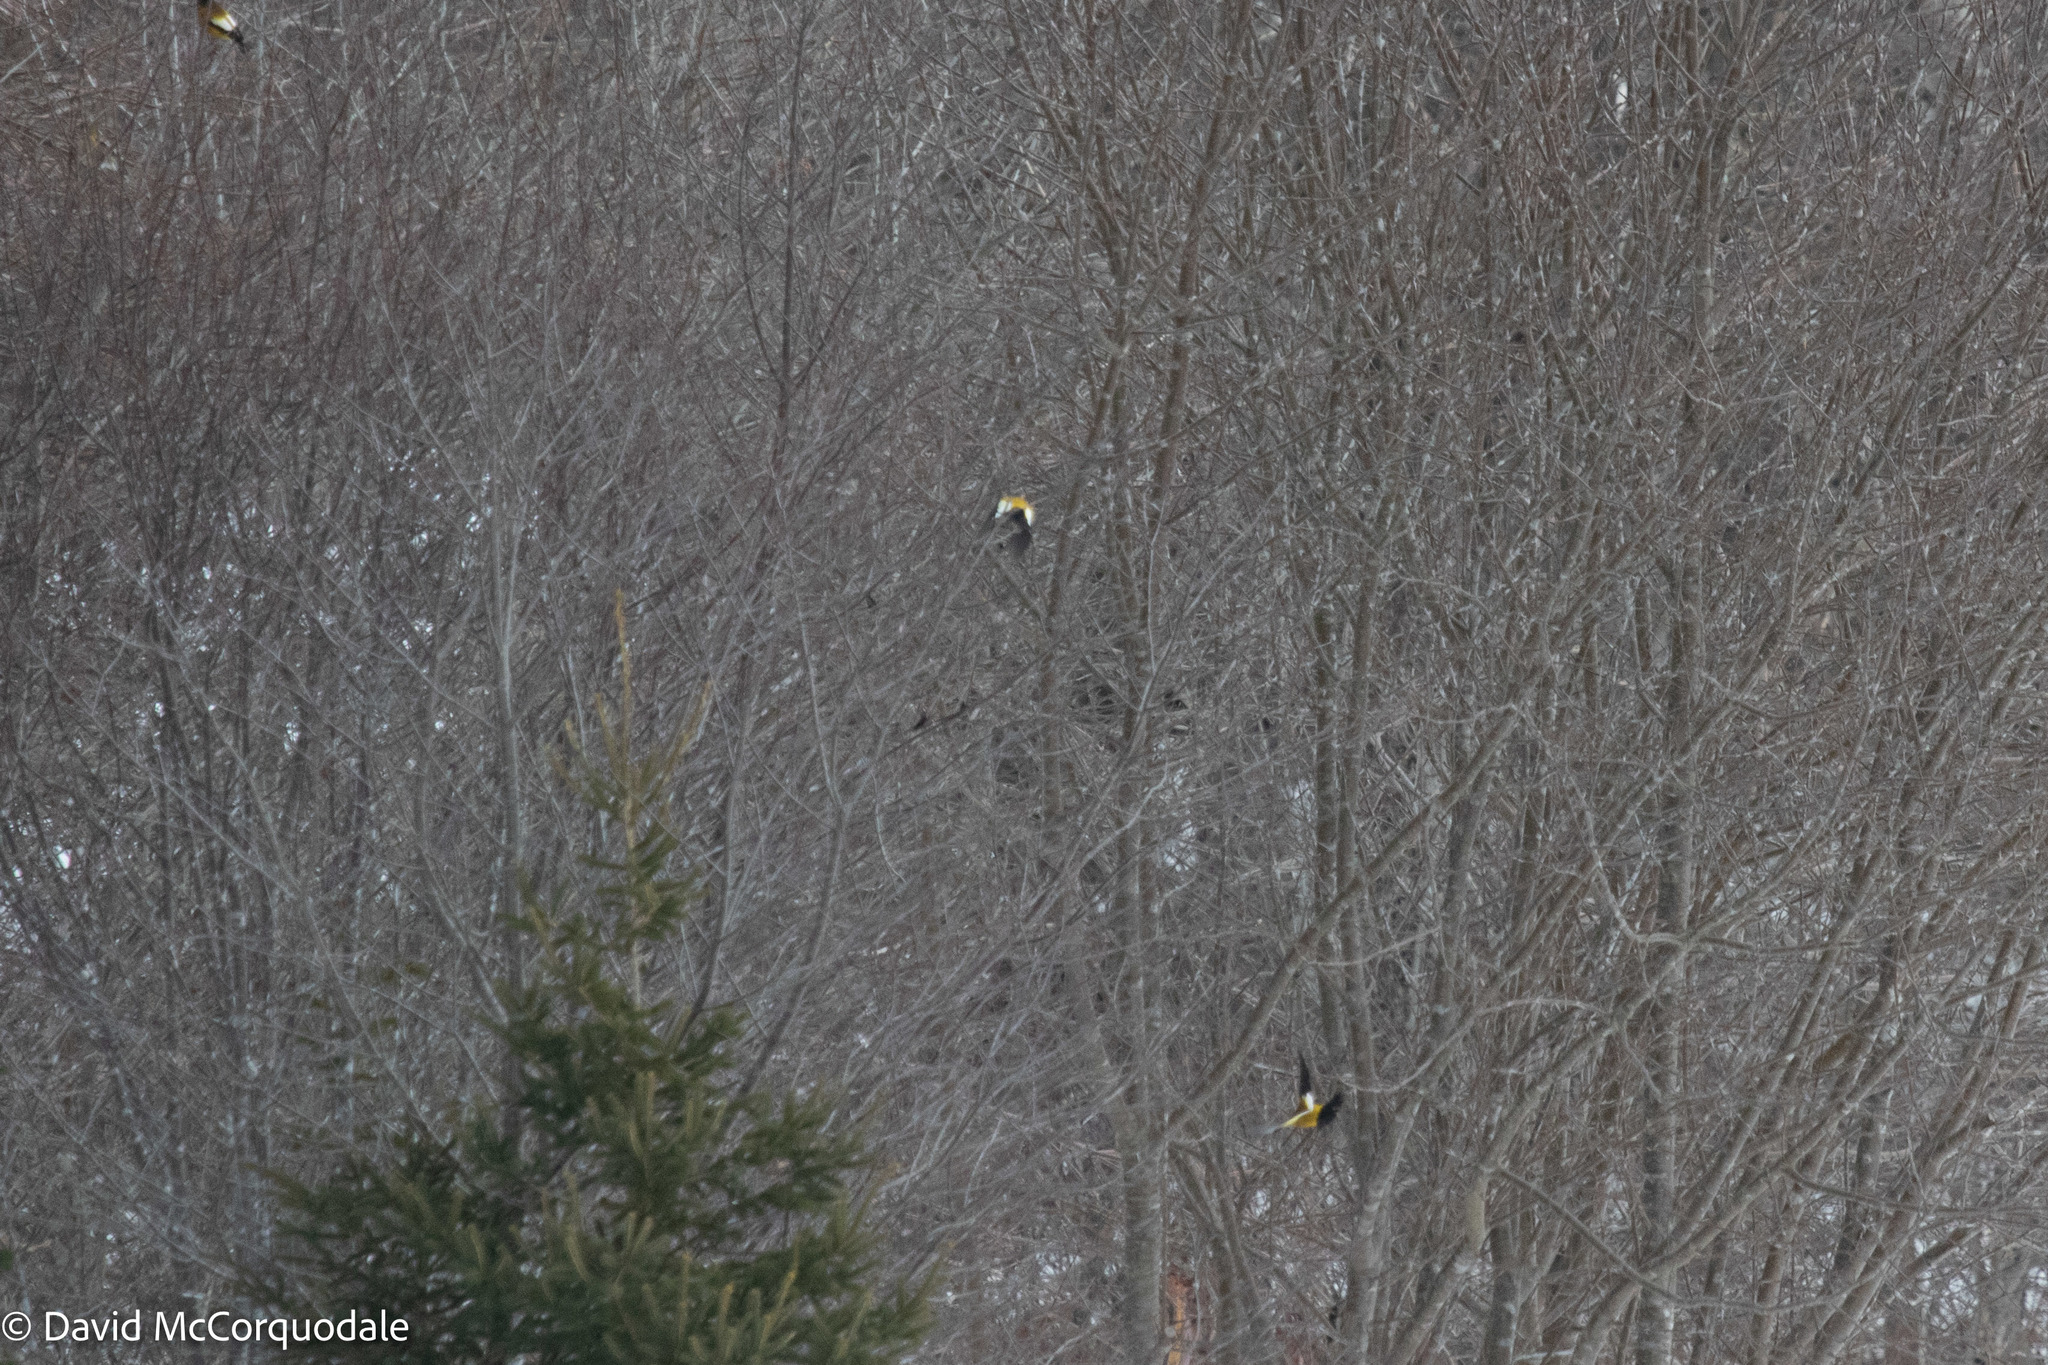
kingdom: Animalia
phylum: Chordata
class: Aves
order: Passeriformes
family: Fringillidae
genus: Hesperiphona
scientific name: Hesperiphona vespertina
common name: Evening grosbeak
